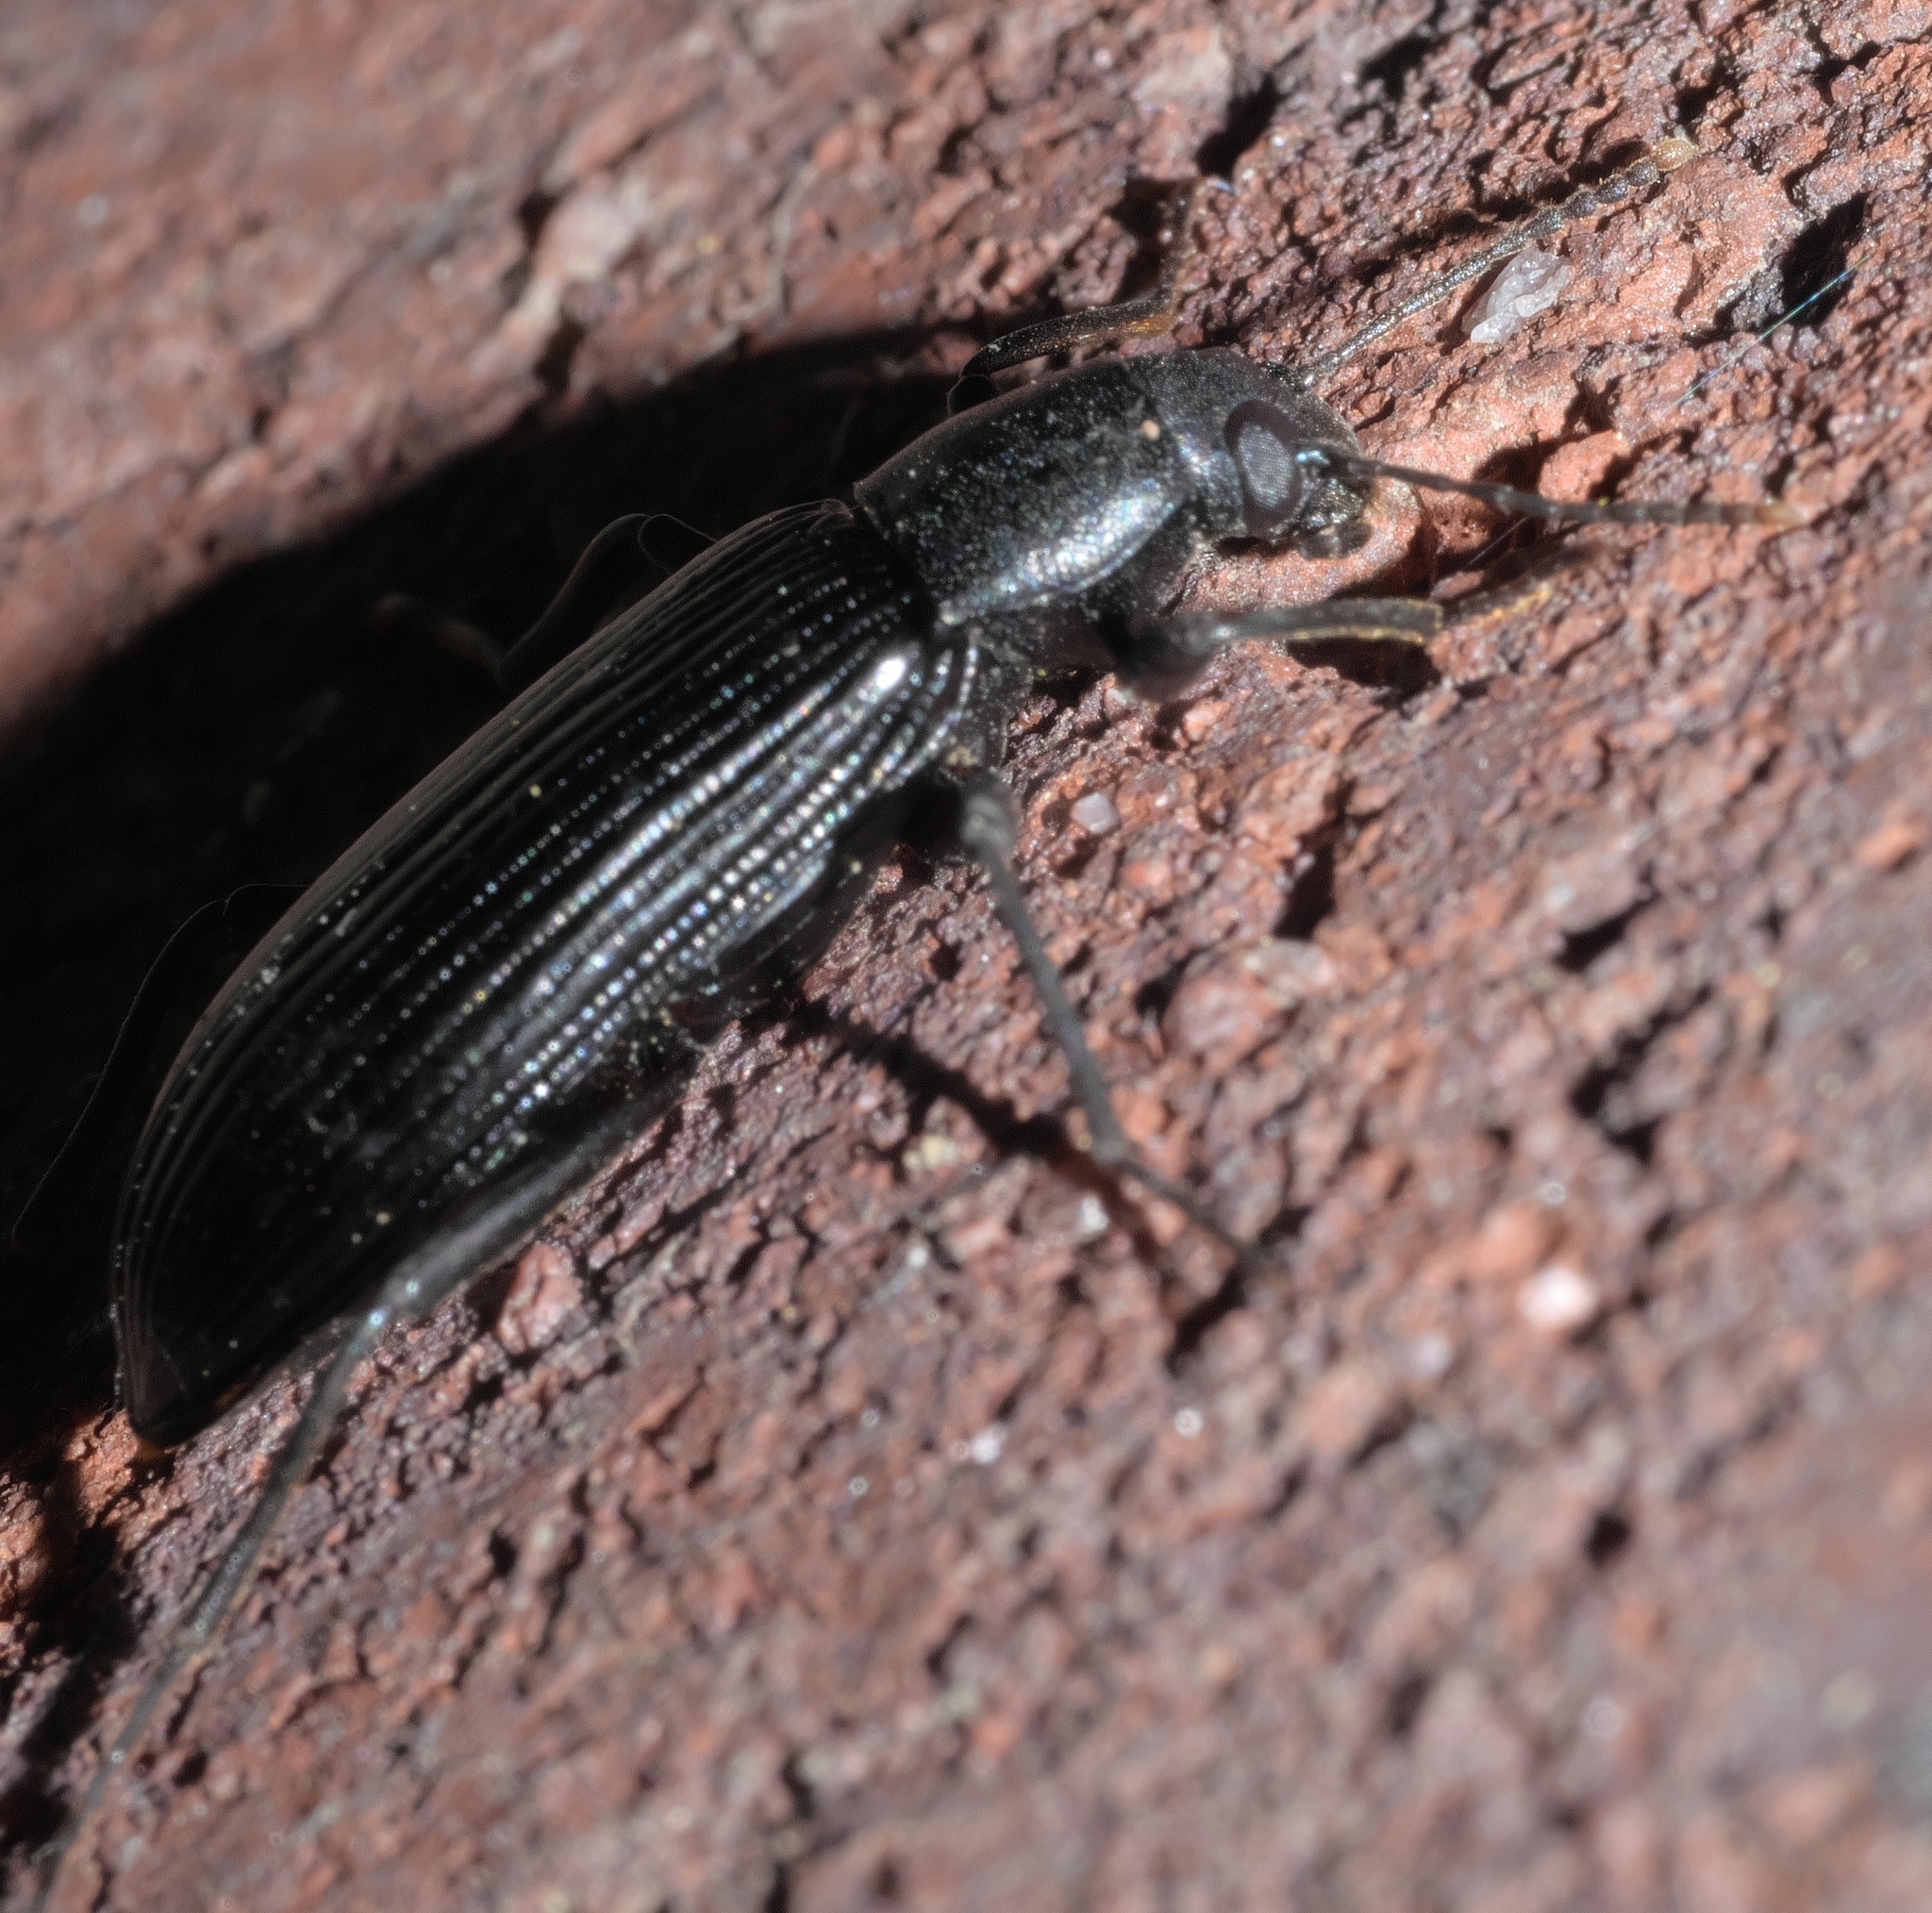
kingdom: Animalia
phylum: Arthropoda
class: Insecta
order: Coleoptera
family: Tenebrionidae
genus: Strongylium
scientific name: Strongylium tenuicolle
